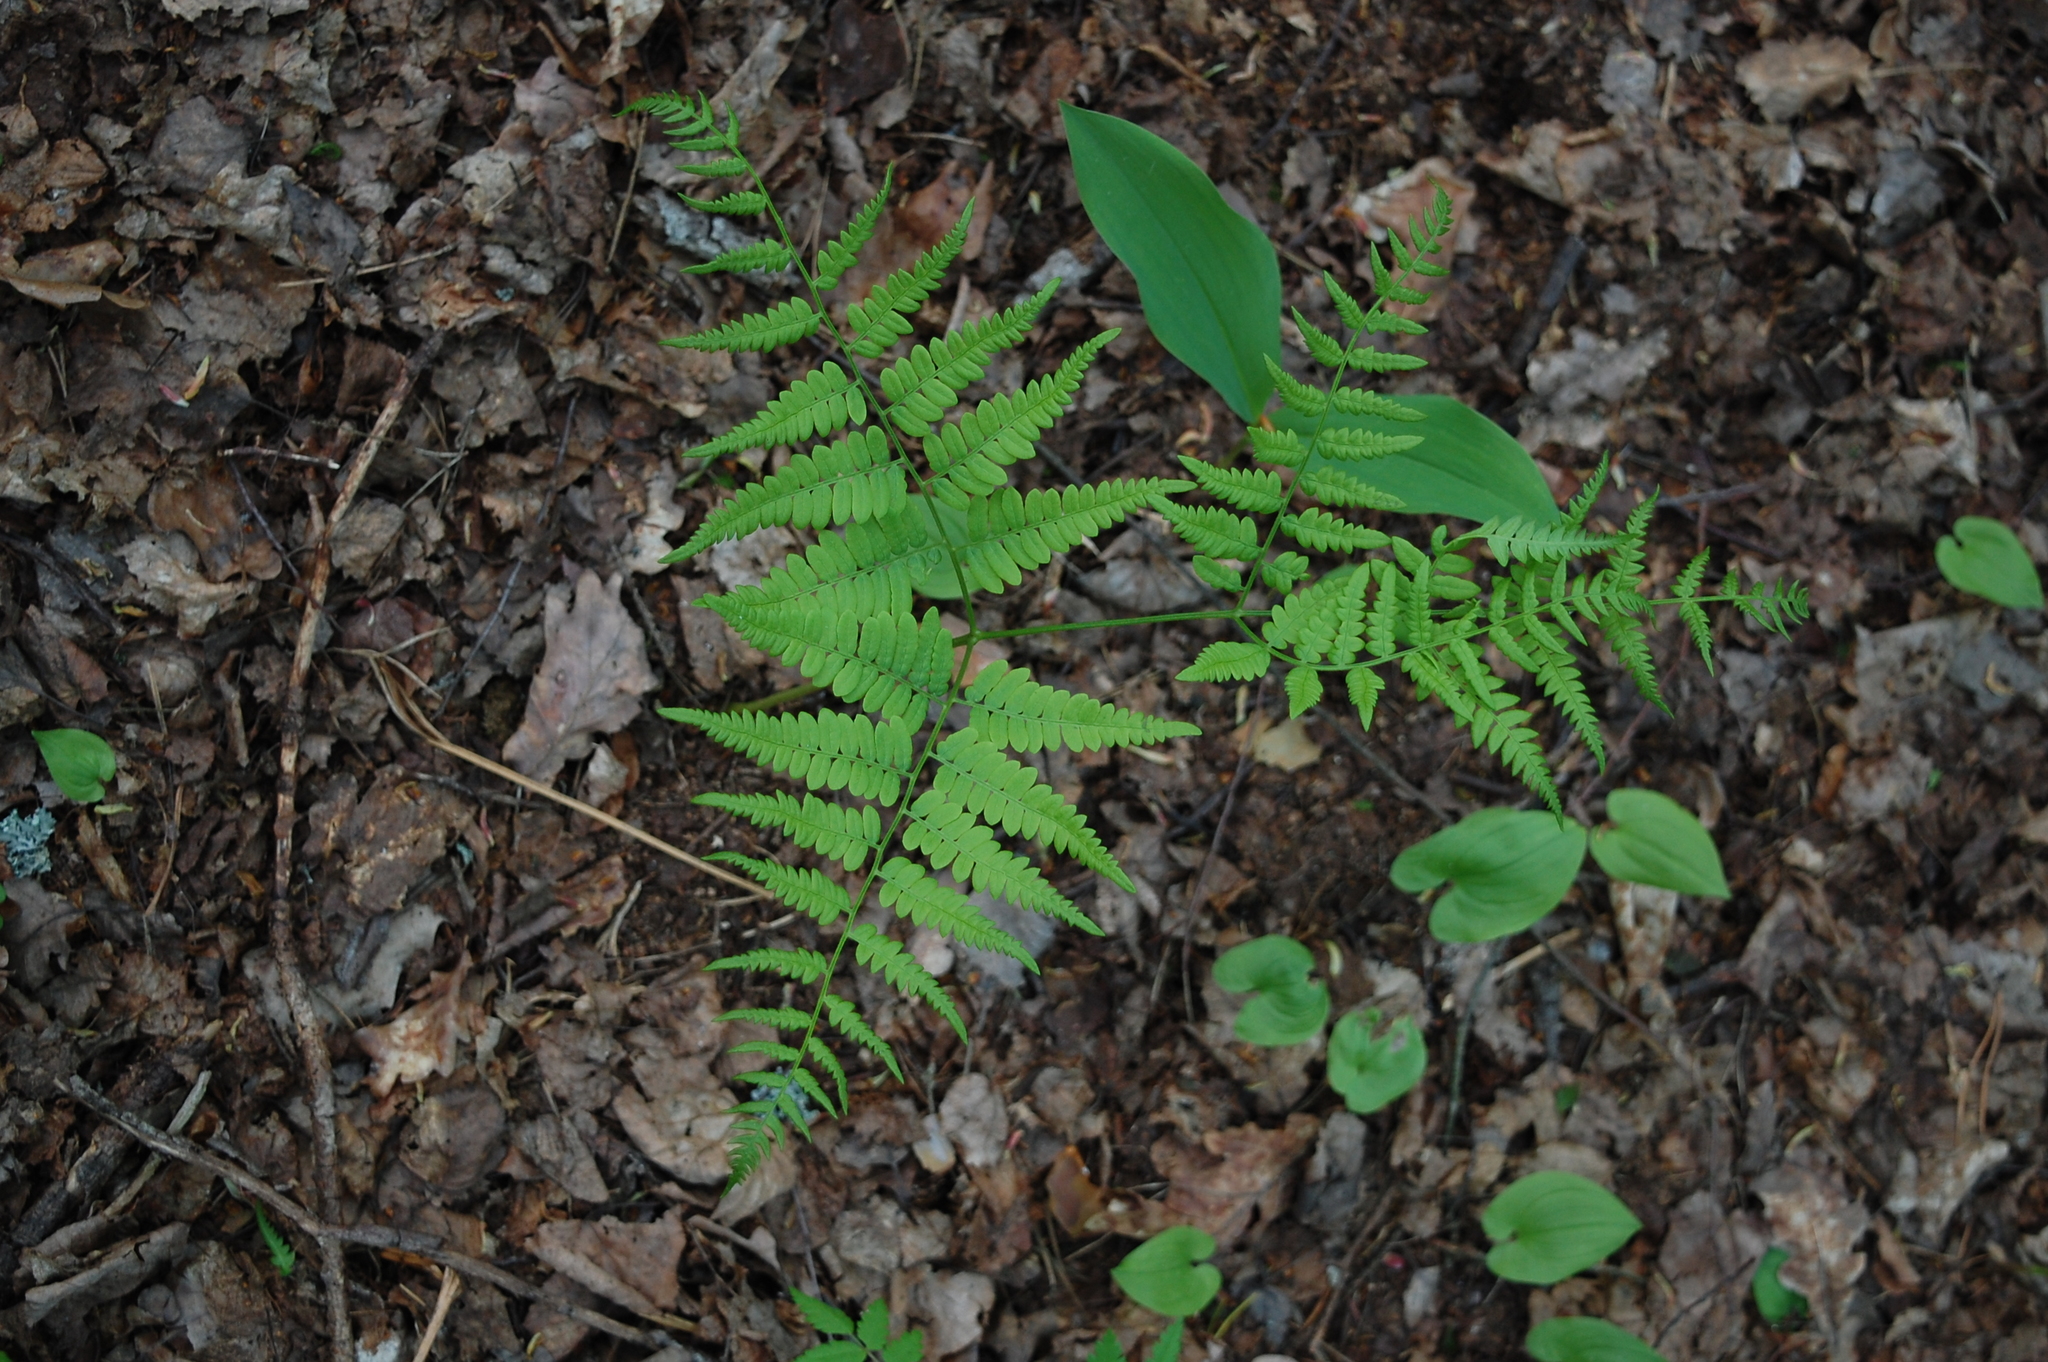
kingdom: Plantae
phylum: Tracheophyta
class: Polypodiopsida
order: Polypodiales
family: Dennstaedtiaceae
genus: Pteridium
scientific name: Pteridium aquilinum
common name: Bracken
